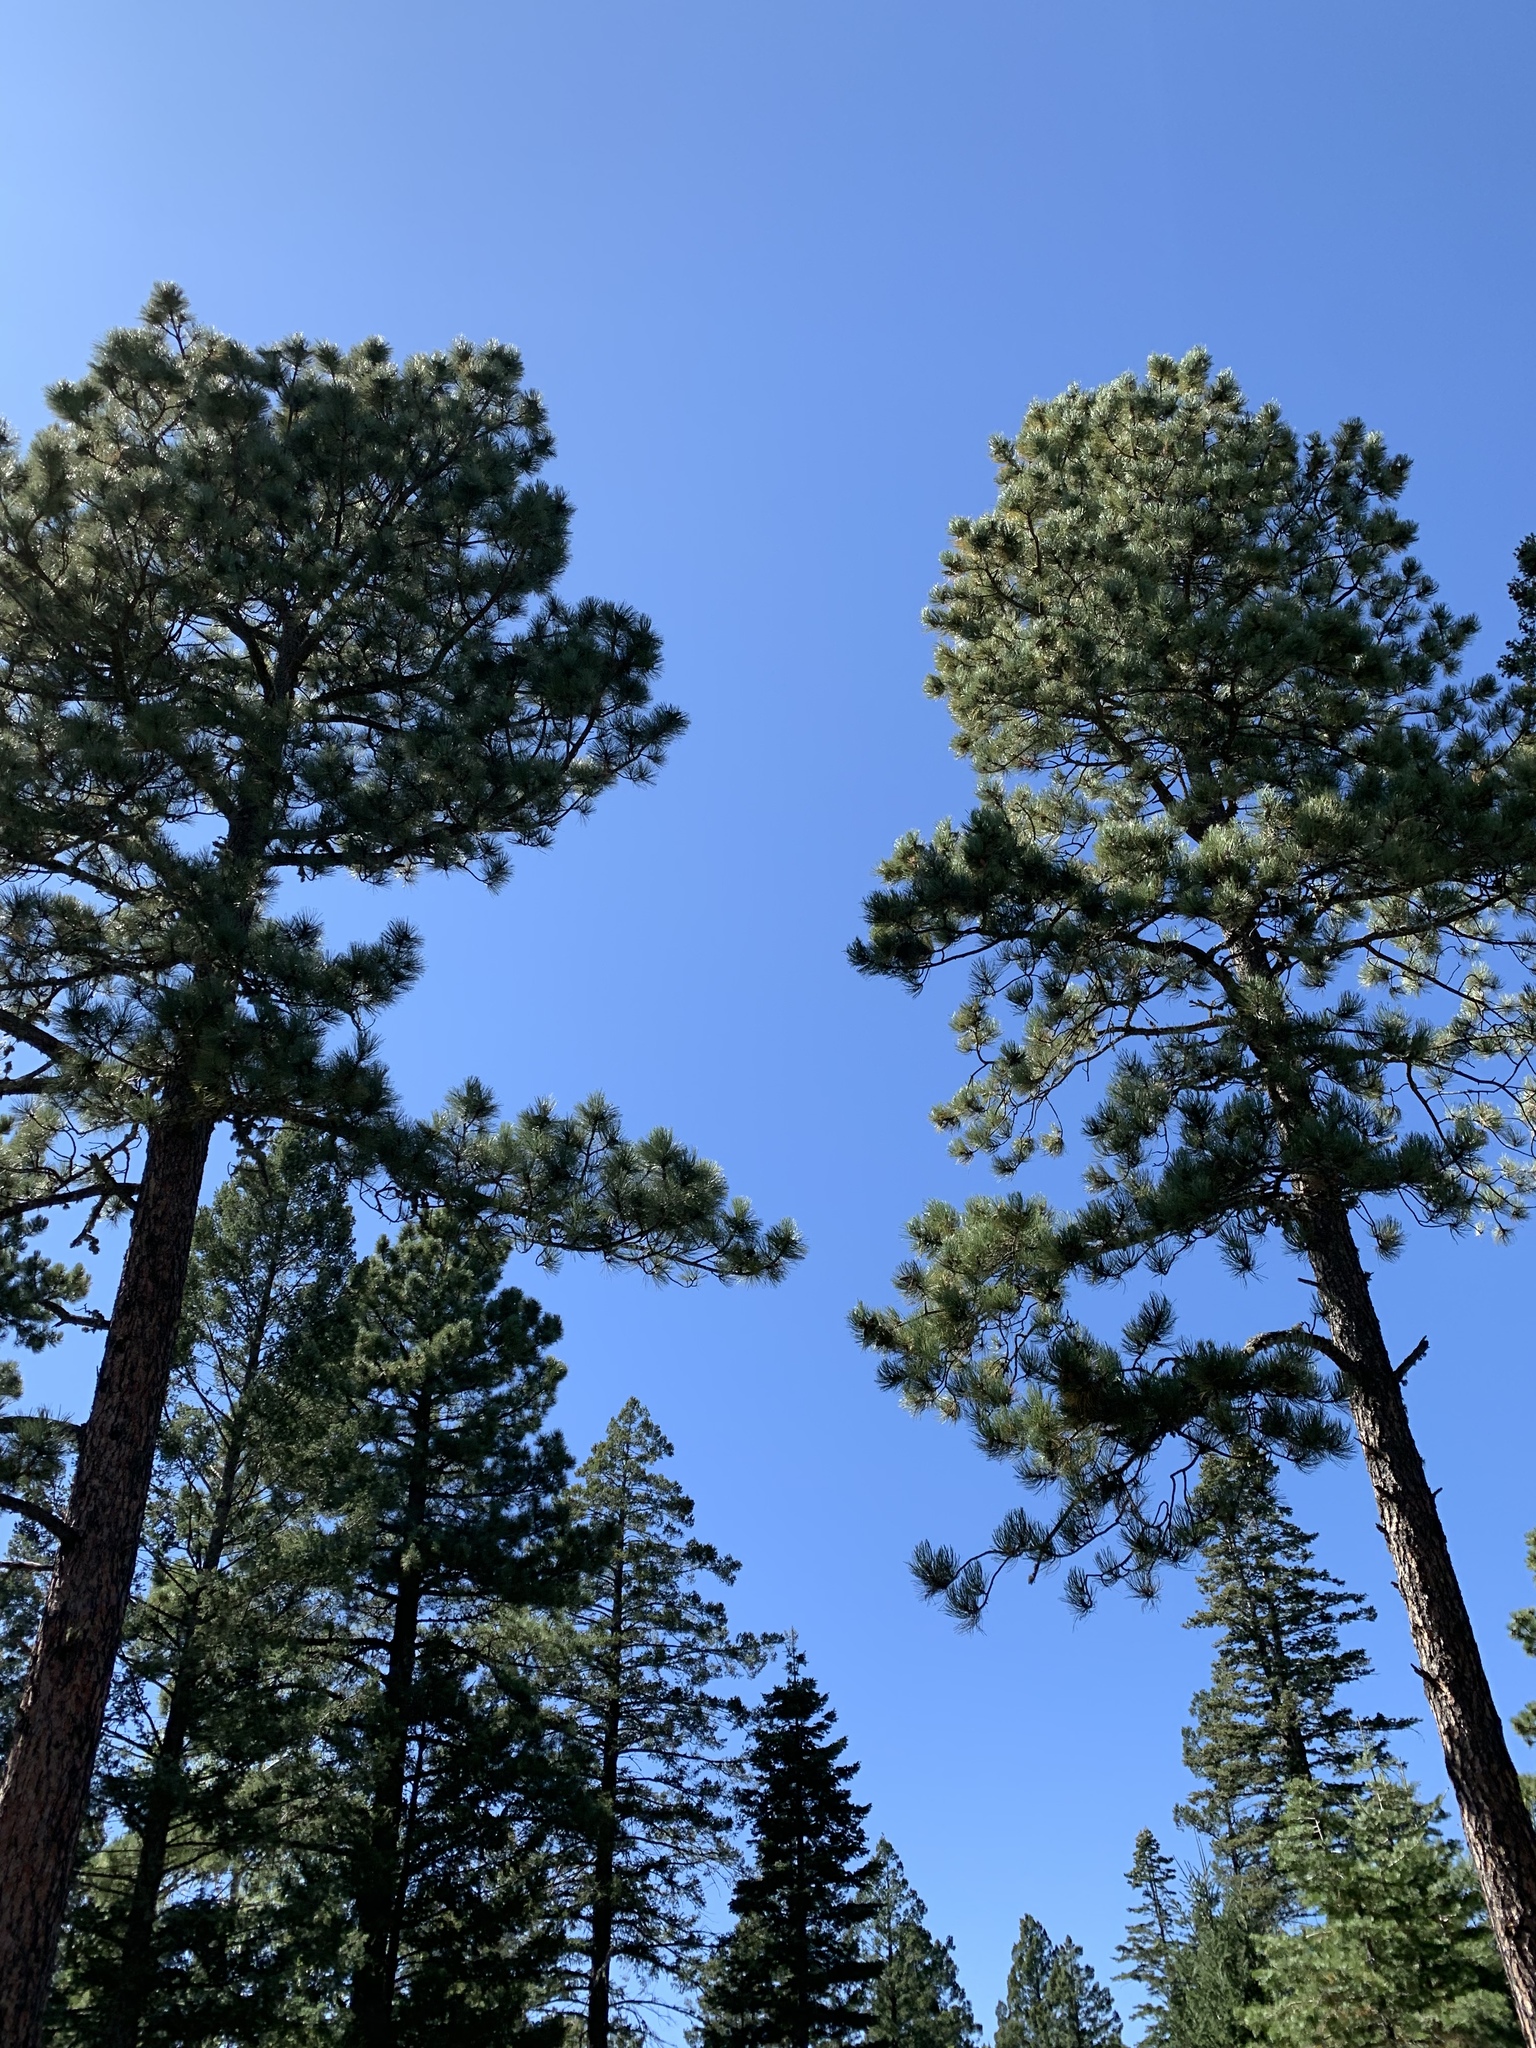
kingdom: Plantae
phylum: Tracheophyta
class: Pinopsida
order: Pinales
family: Pinaceae
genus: Pinus
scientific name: Pinus ponderosa
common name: Western yellow-pine
